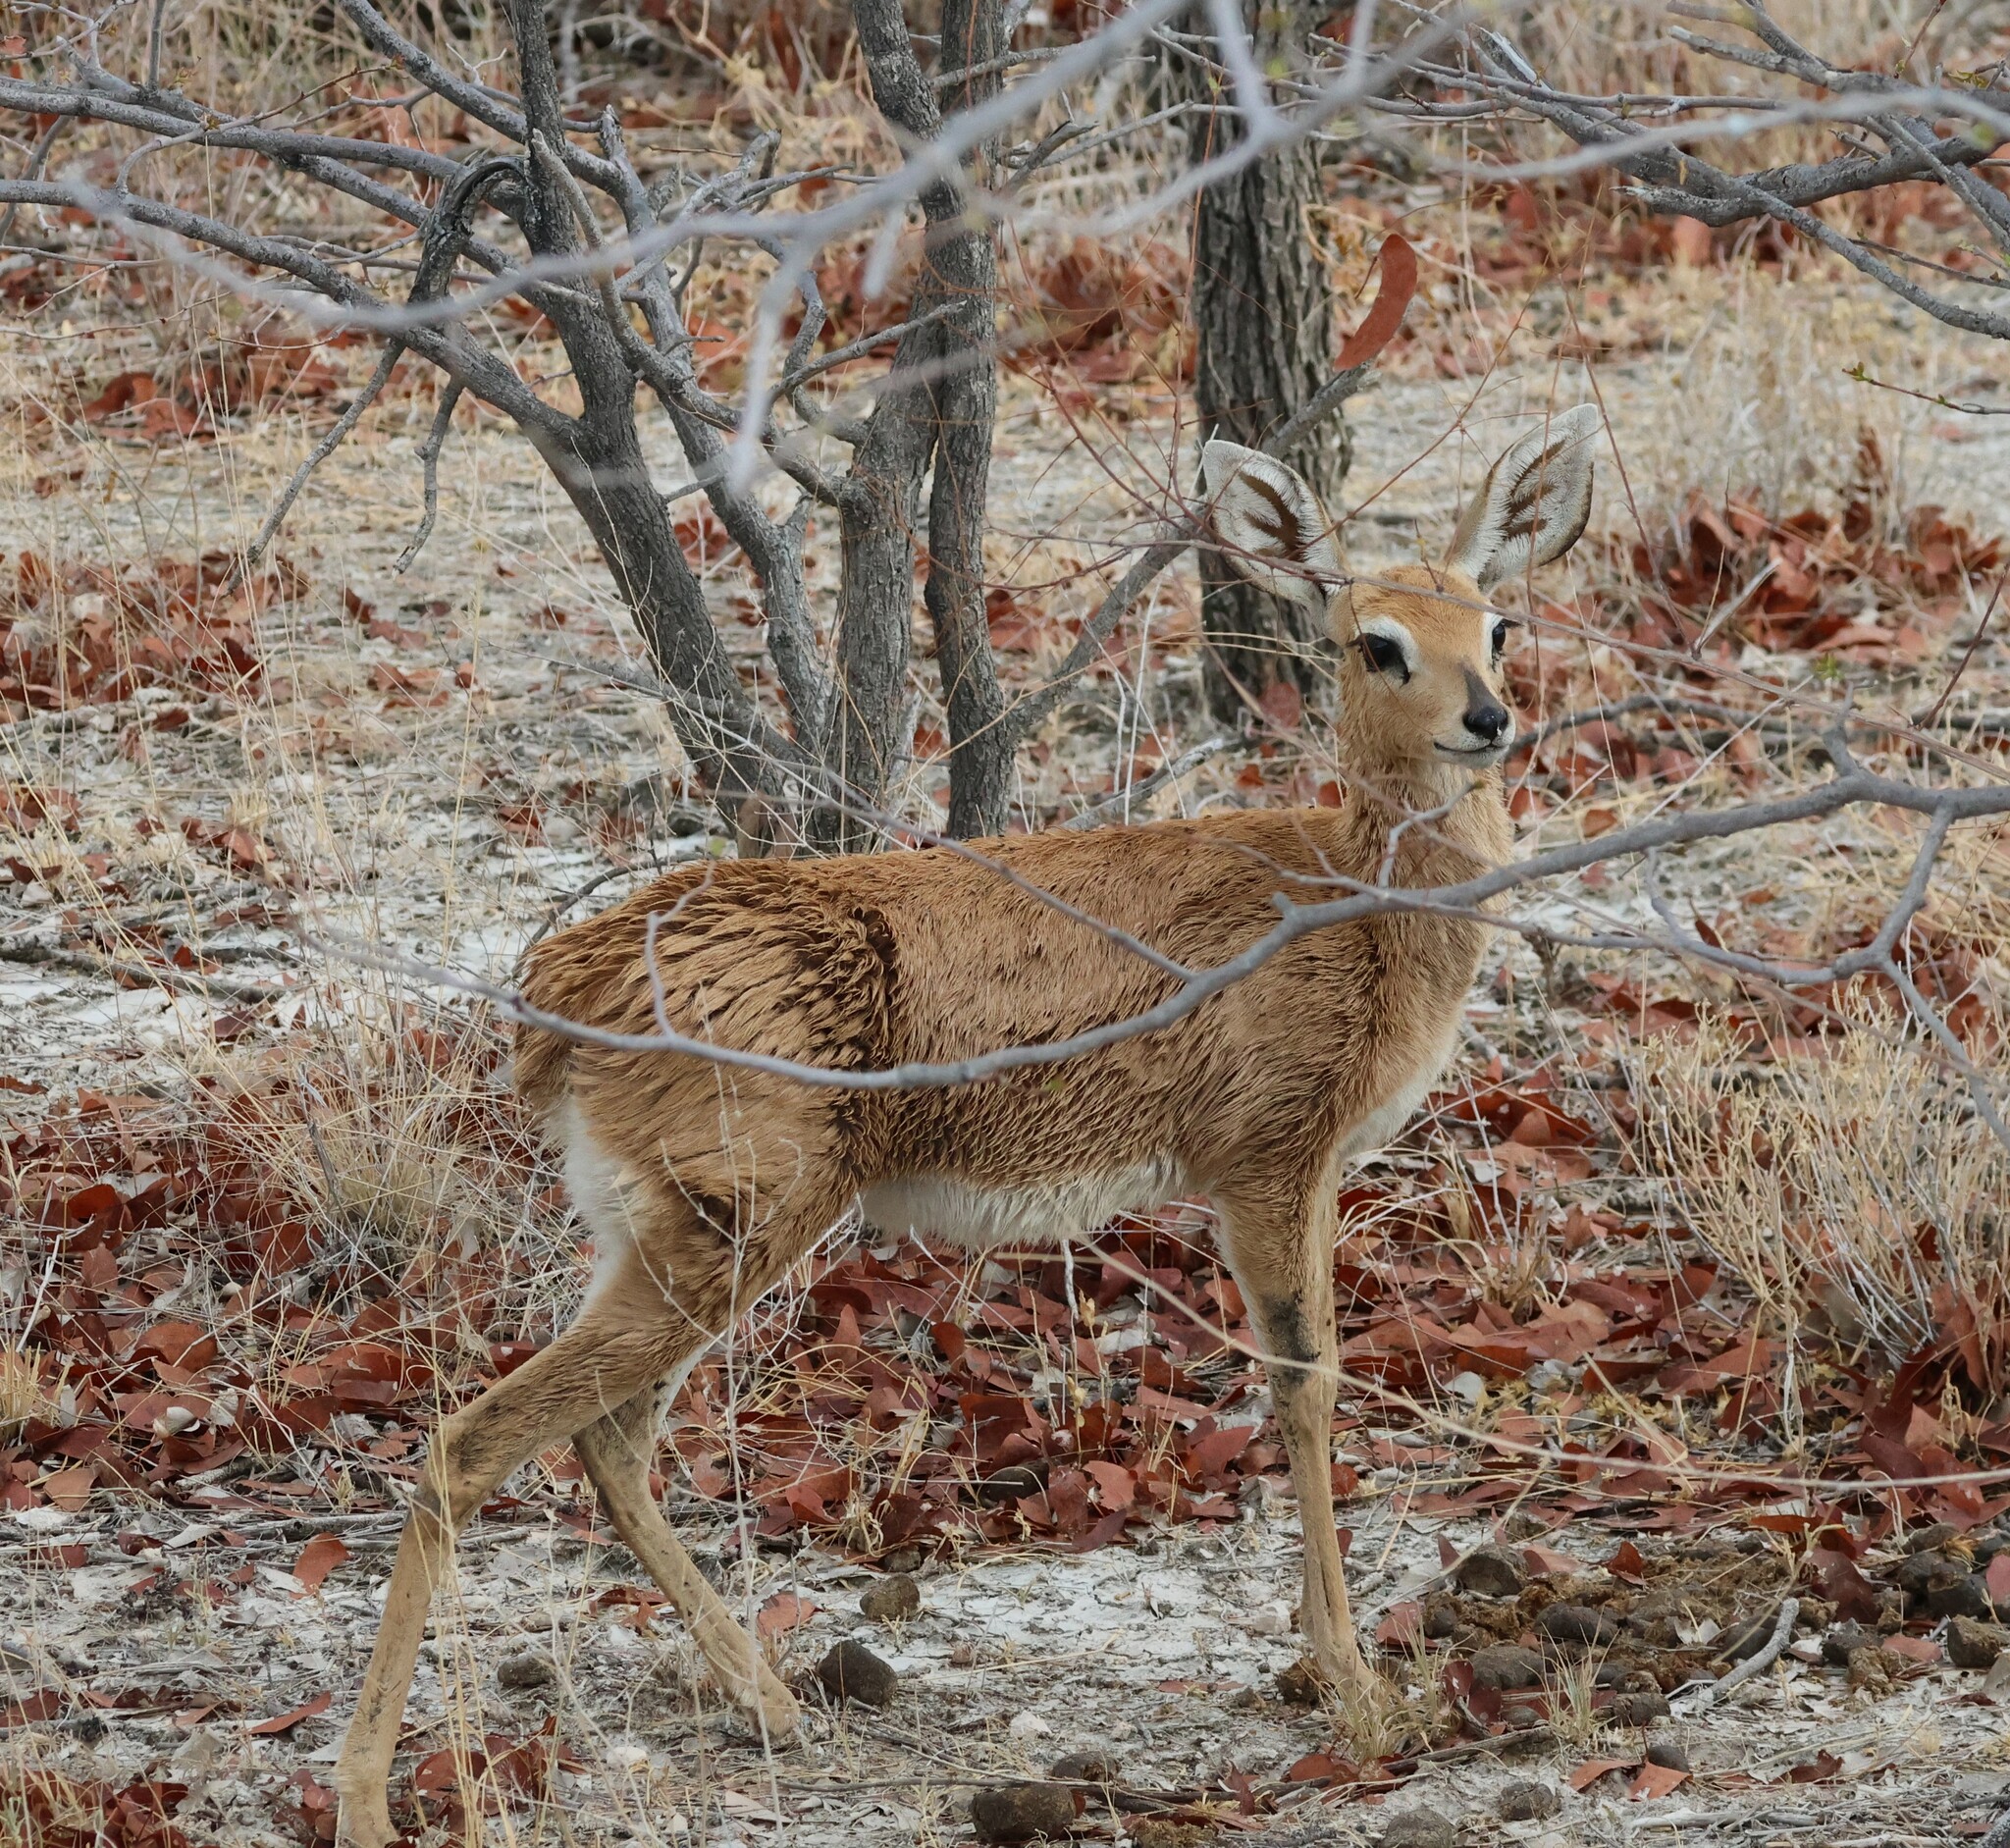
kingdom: Animalia
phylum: Chordata
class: Mammalia
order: Artiodactyla
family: Bovidae
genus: Raphicerus
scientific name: Raphicerus campestris
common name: Steenbok
